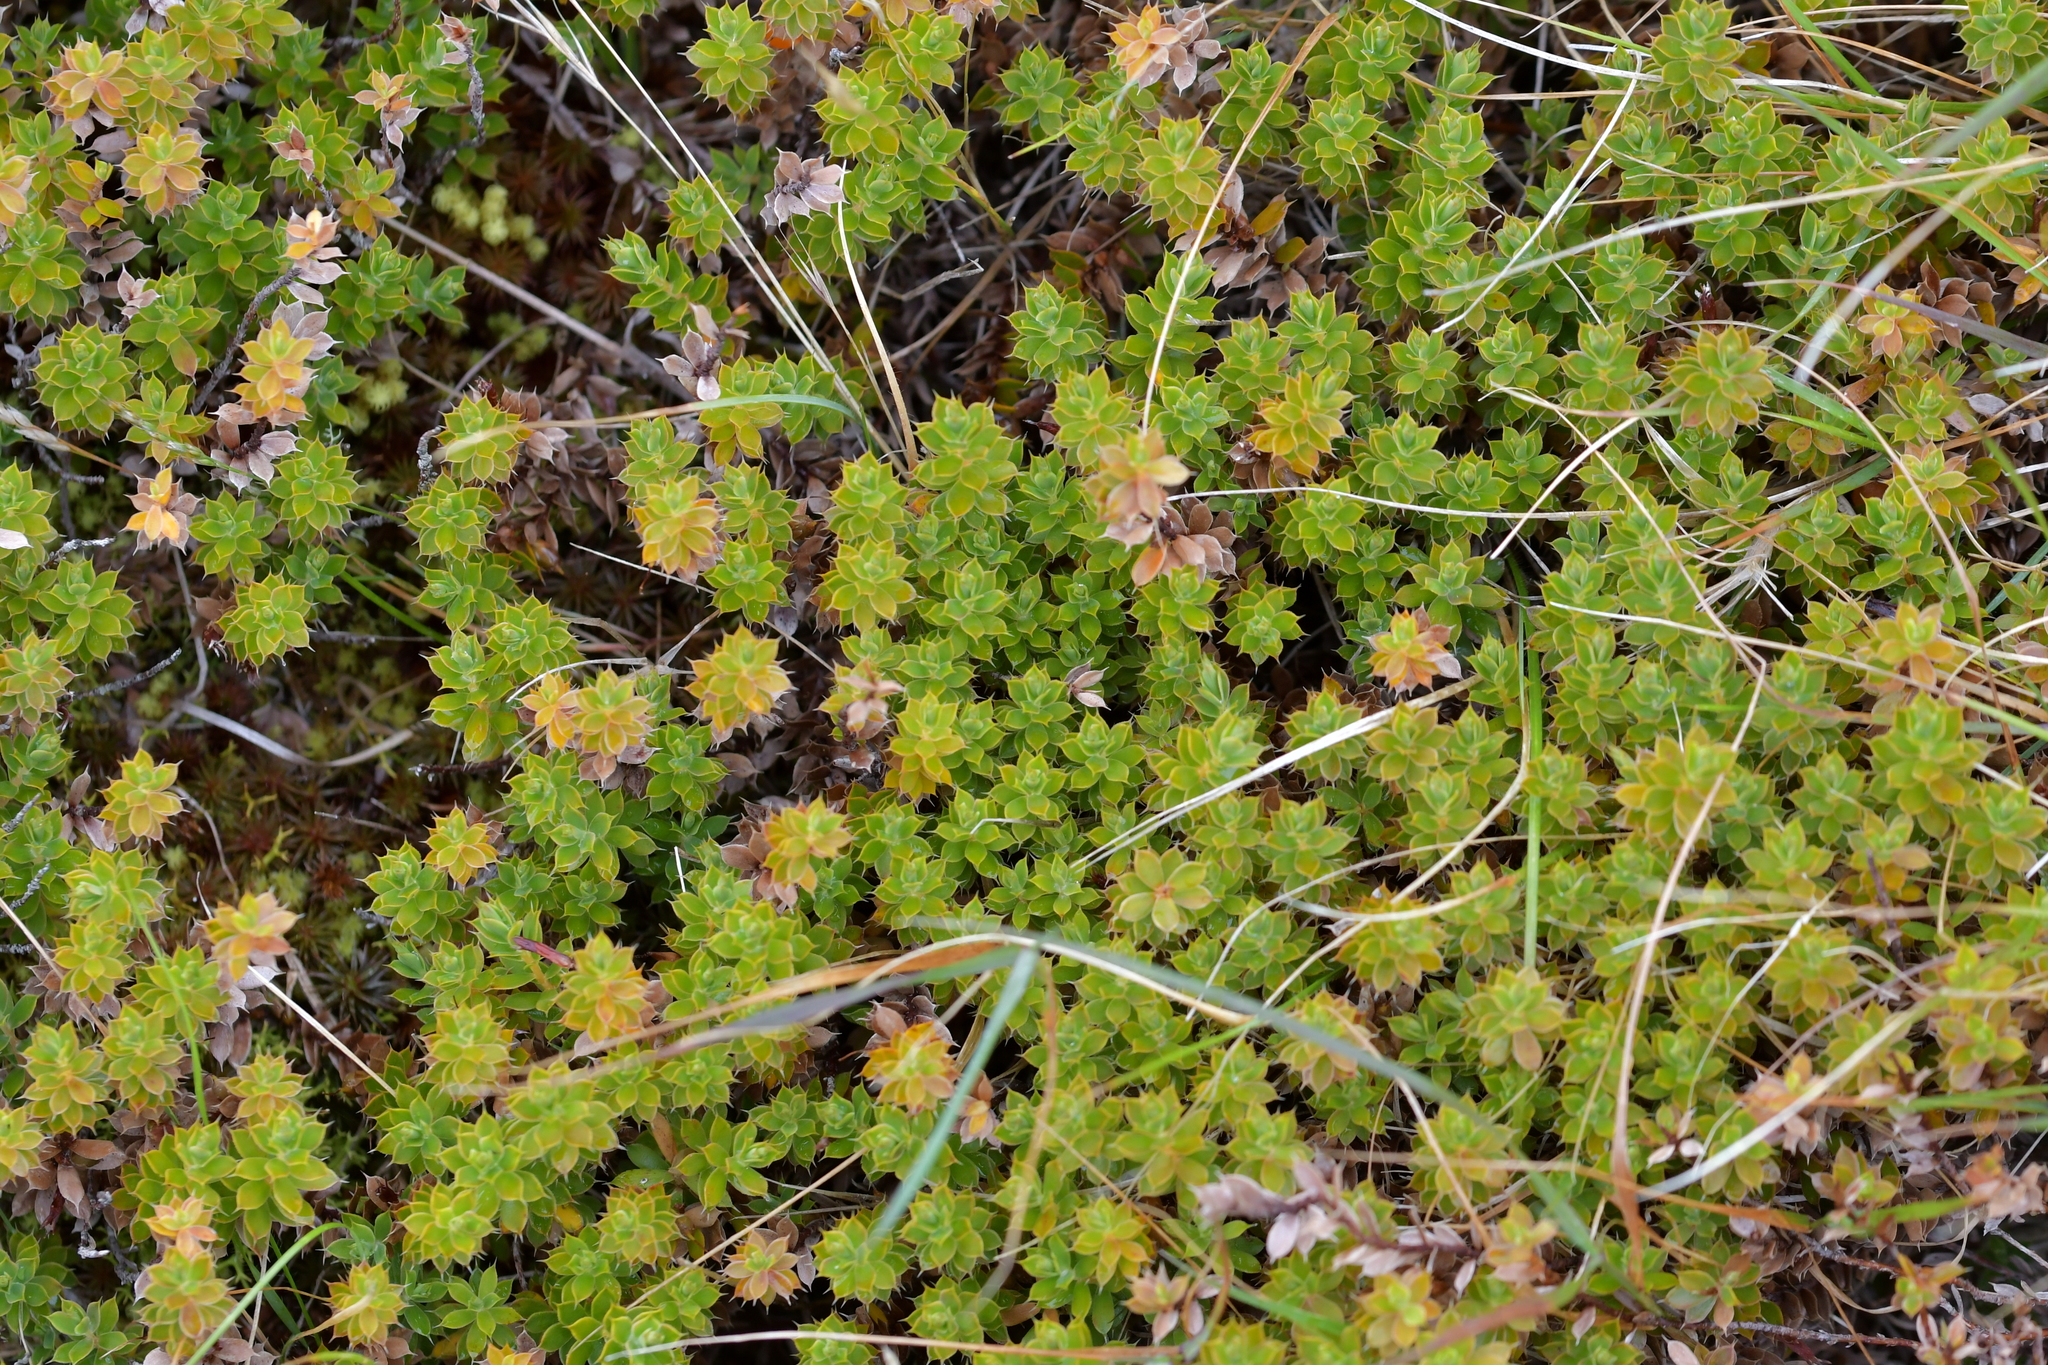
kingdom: Plantae
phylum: Tracheophyta
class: Magnoliopsida
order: Ericales
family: Ericaceae
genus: Styphelia
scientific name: Styphelia nesophila
